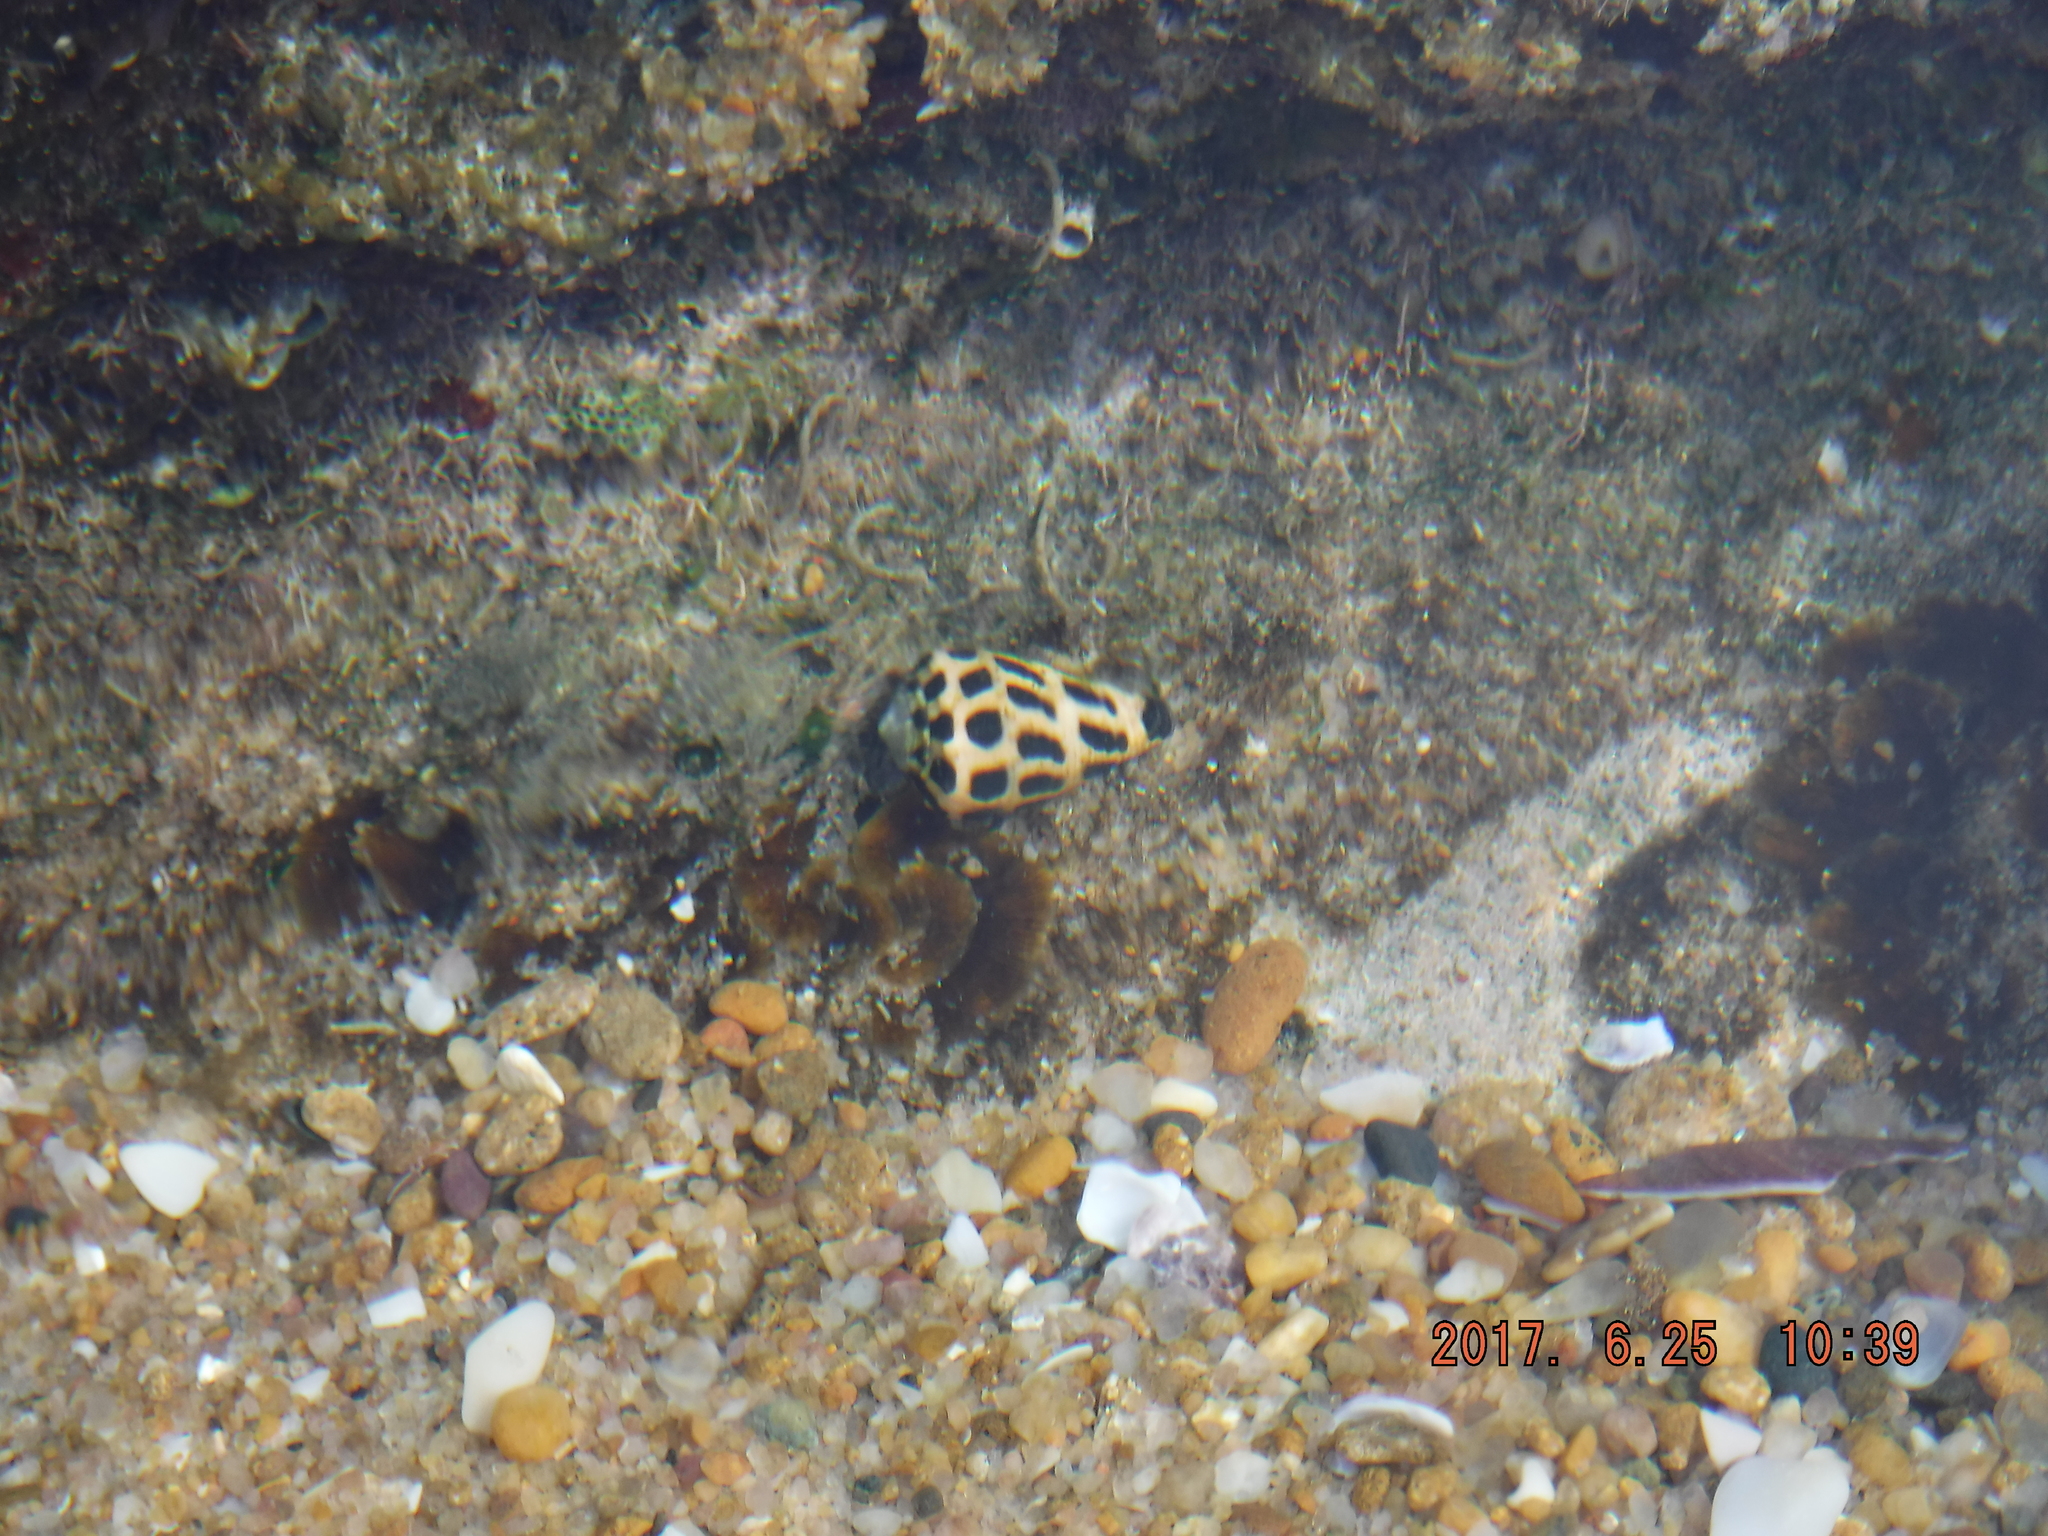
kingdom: Animalia
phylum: Mollusca
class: Gastropoda
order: Neogastropoda
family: Conidae
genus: Conus
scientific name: Conus ebraeus
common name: Hebrew cone
